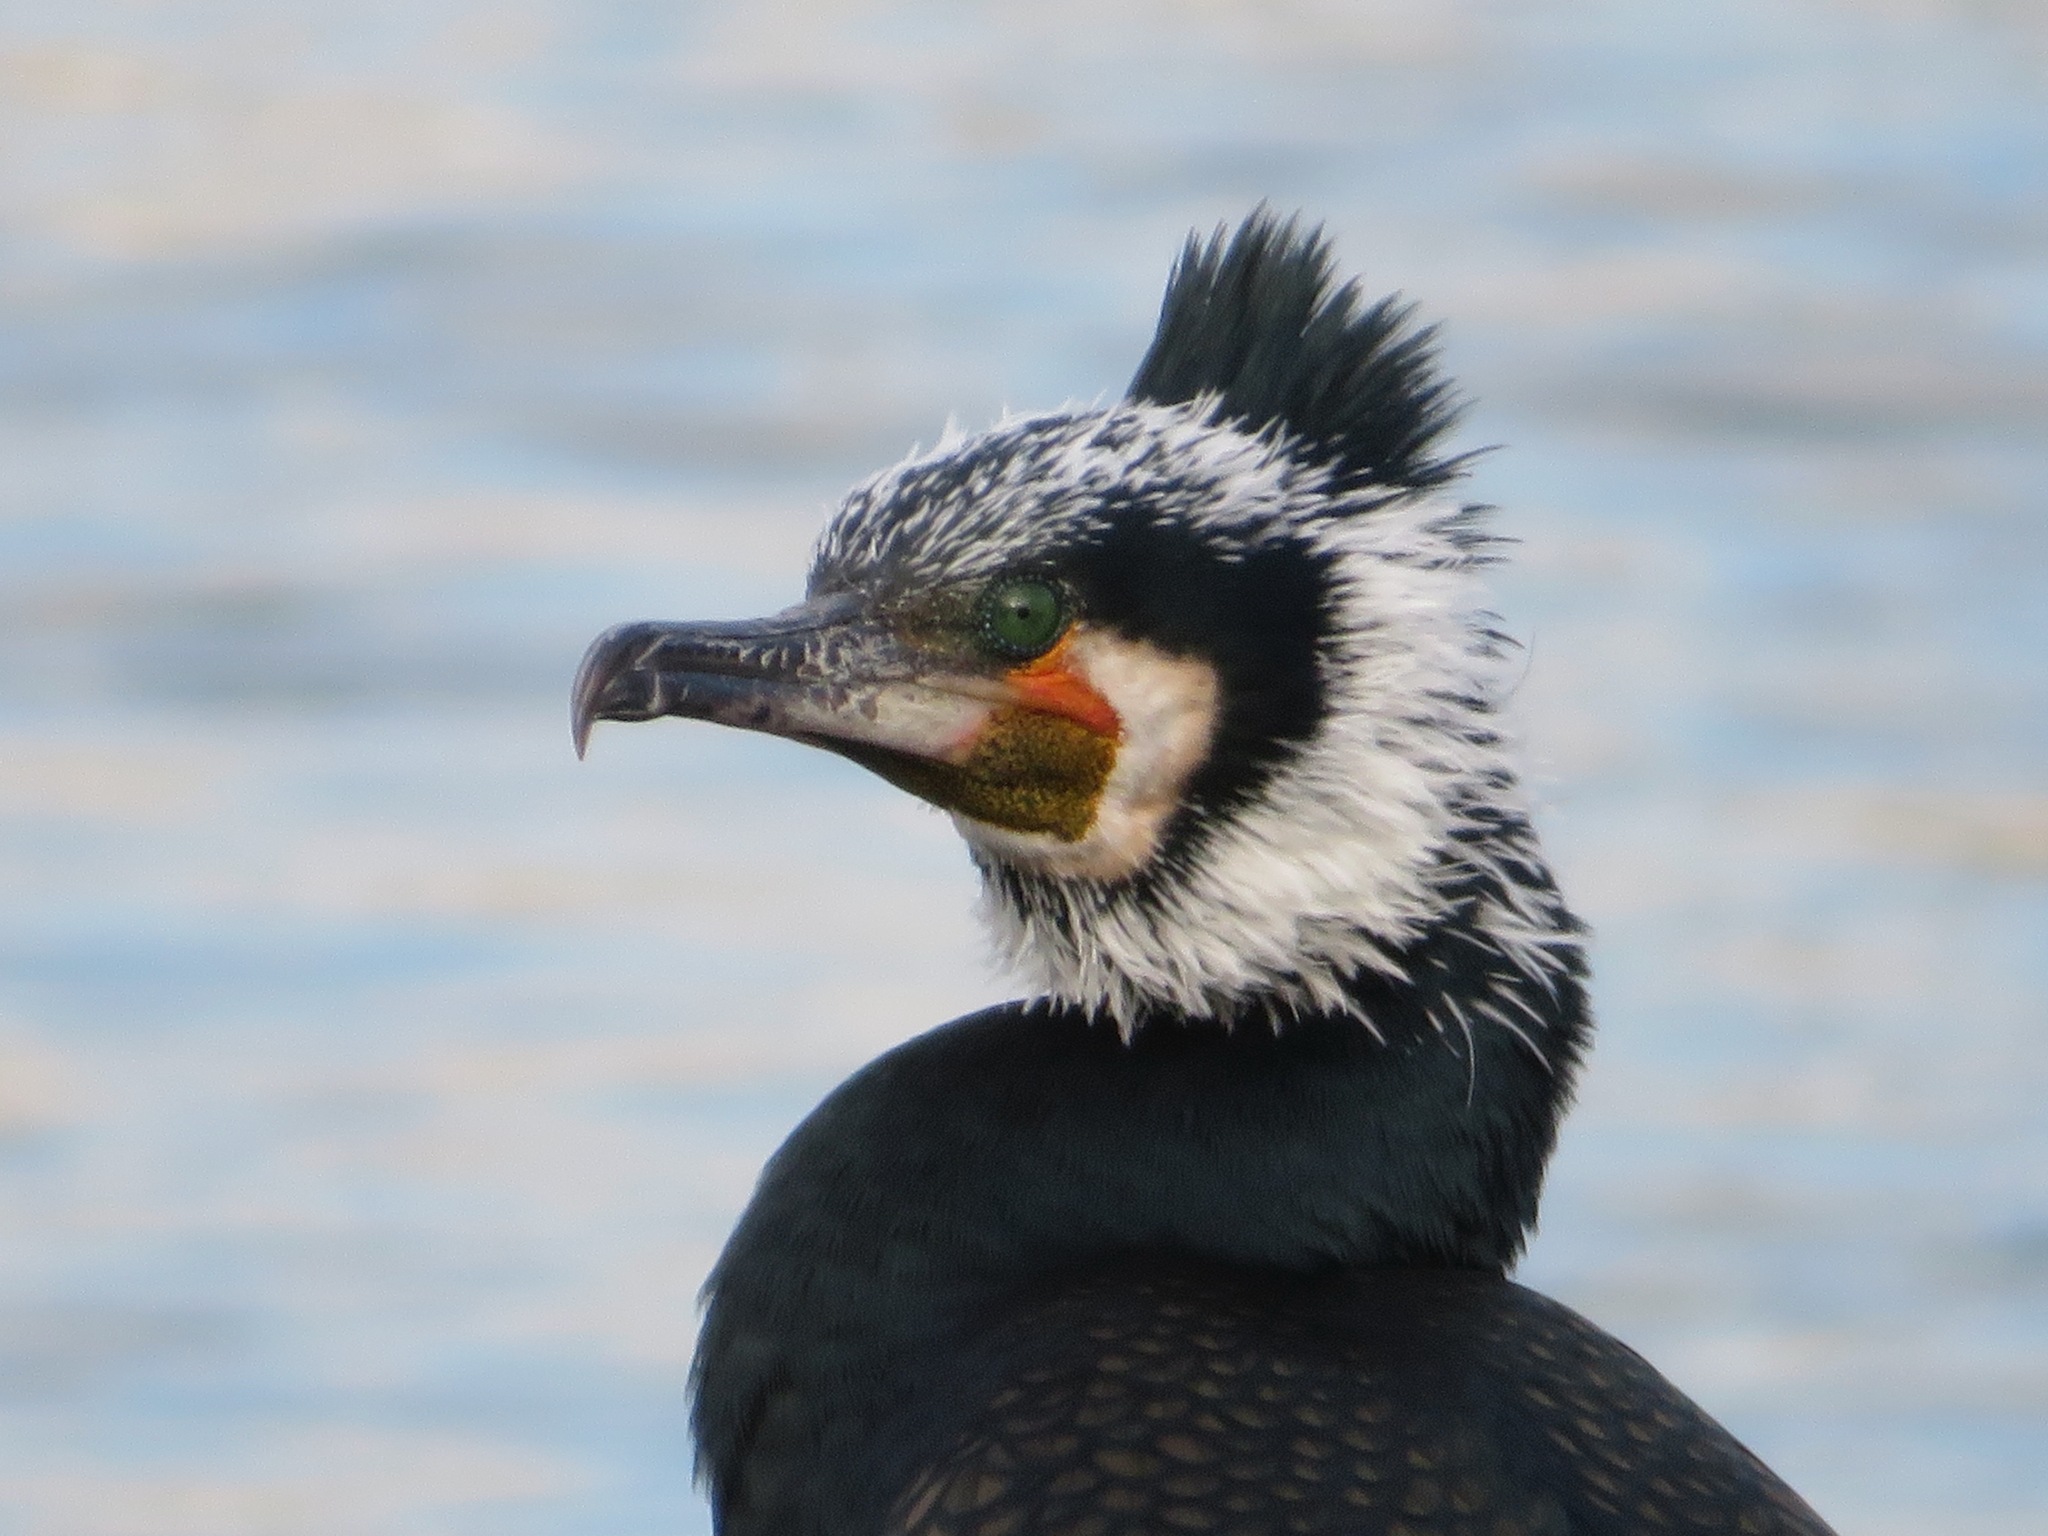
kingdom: Animalia
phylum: Chordata
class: Aves
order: Suliformes
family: Phalacrocoracidae
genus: Phalacrocorax
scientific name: Phalacrocorax carbo
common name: Great cormorant
